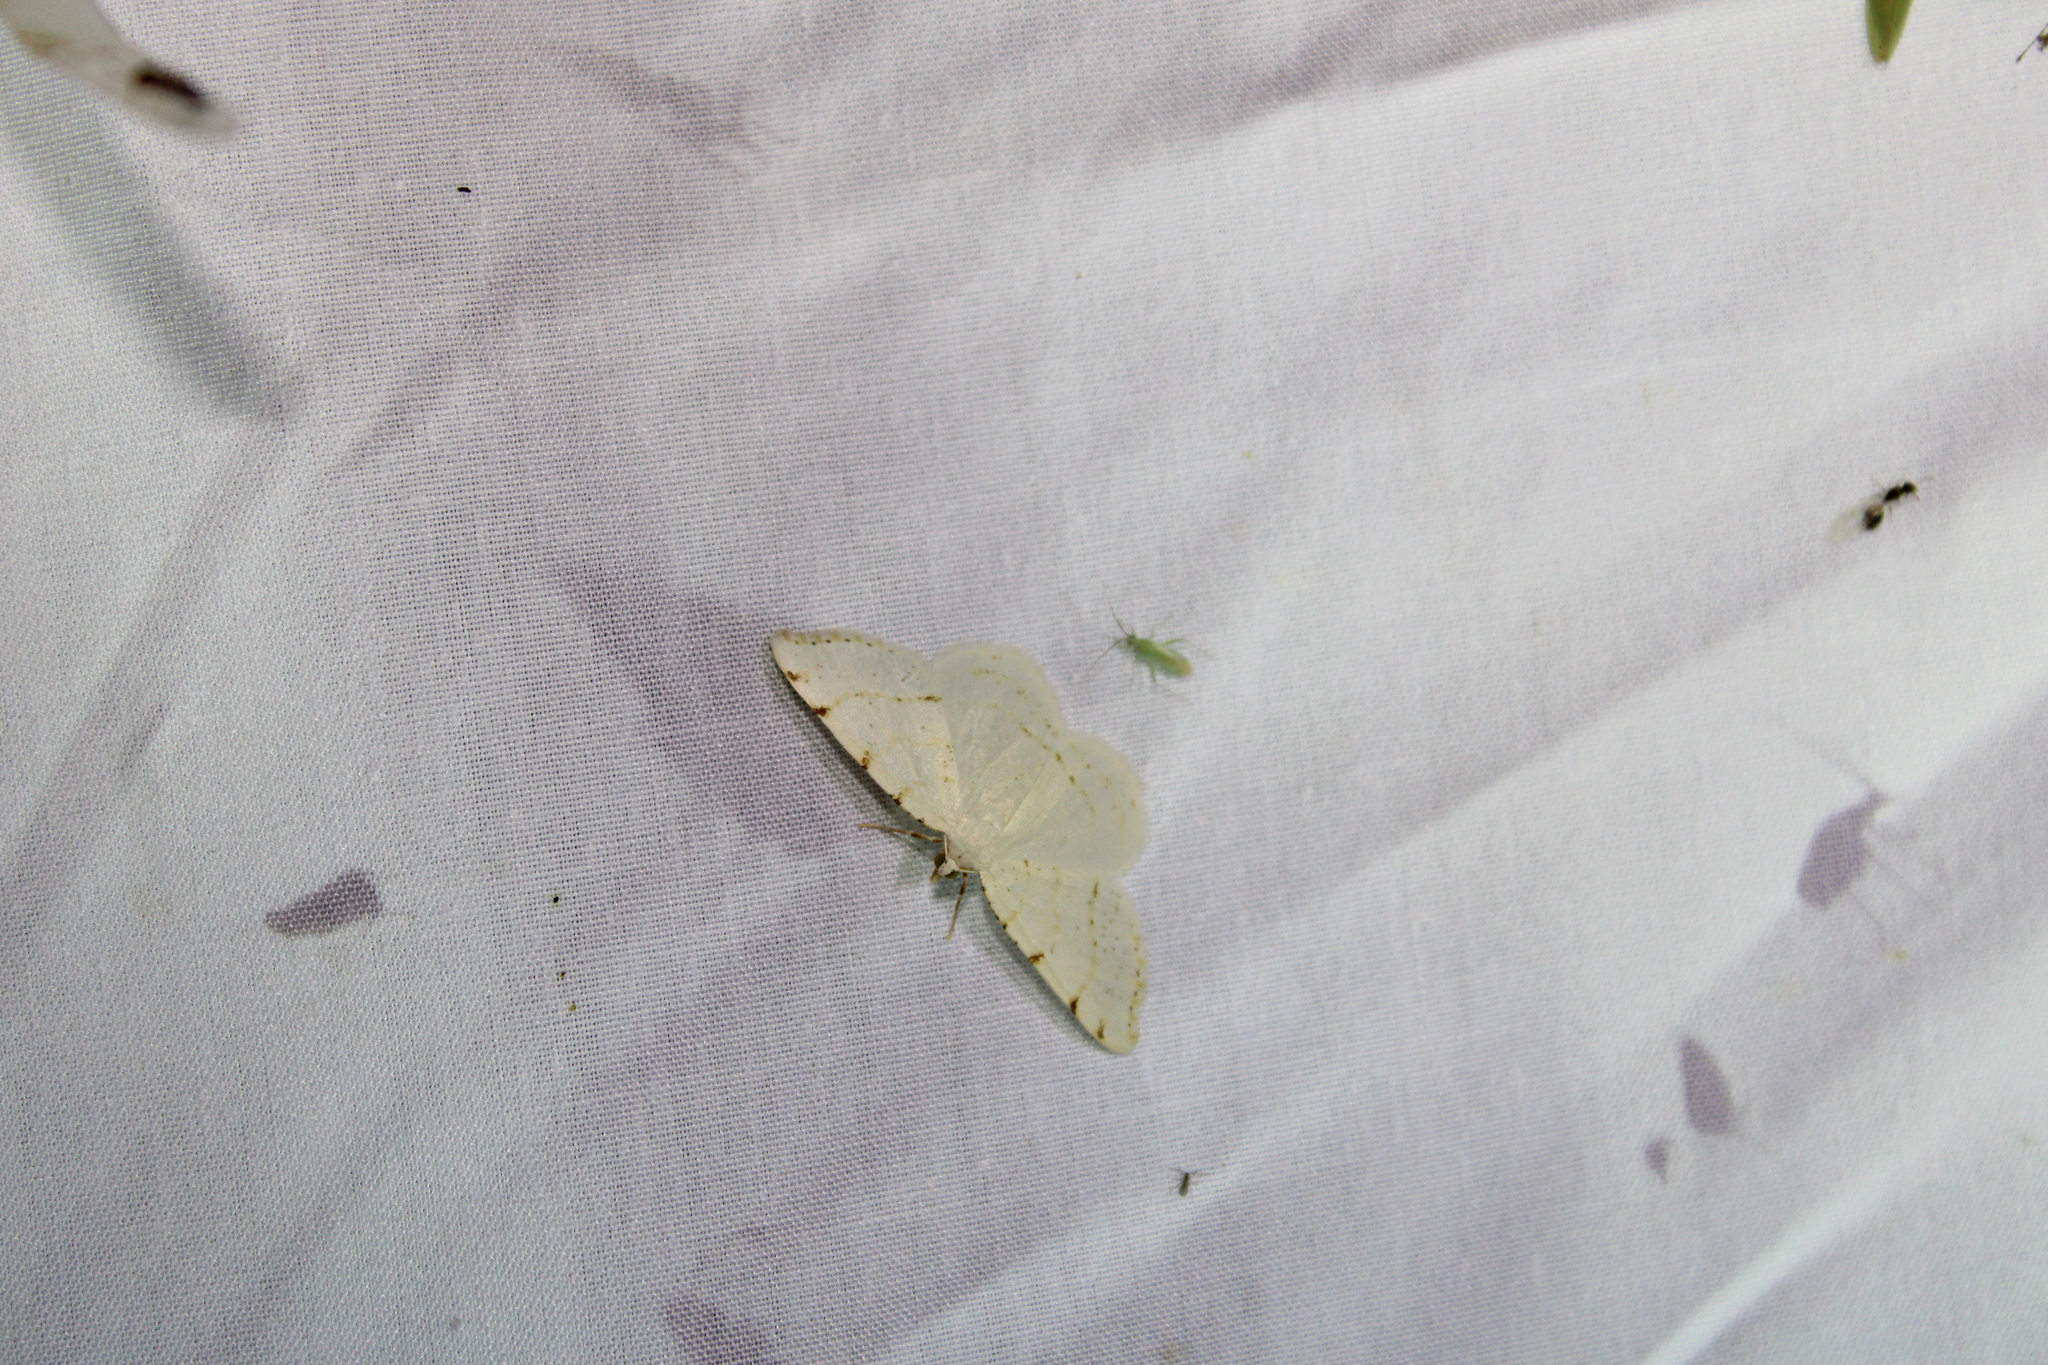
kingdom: Animalia
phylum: Arthropoda
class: Insecta
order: Lepidoptera
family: Geometridae
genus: Macaria
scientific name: Macaria pustularia
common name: Lesser maple spanworm moth
